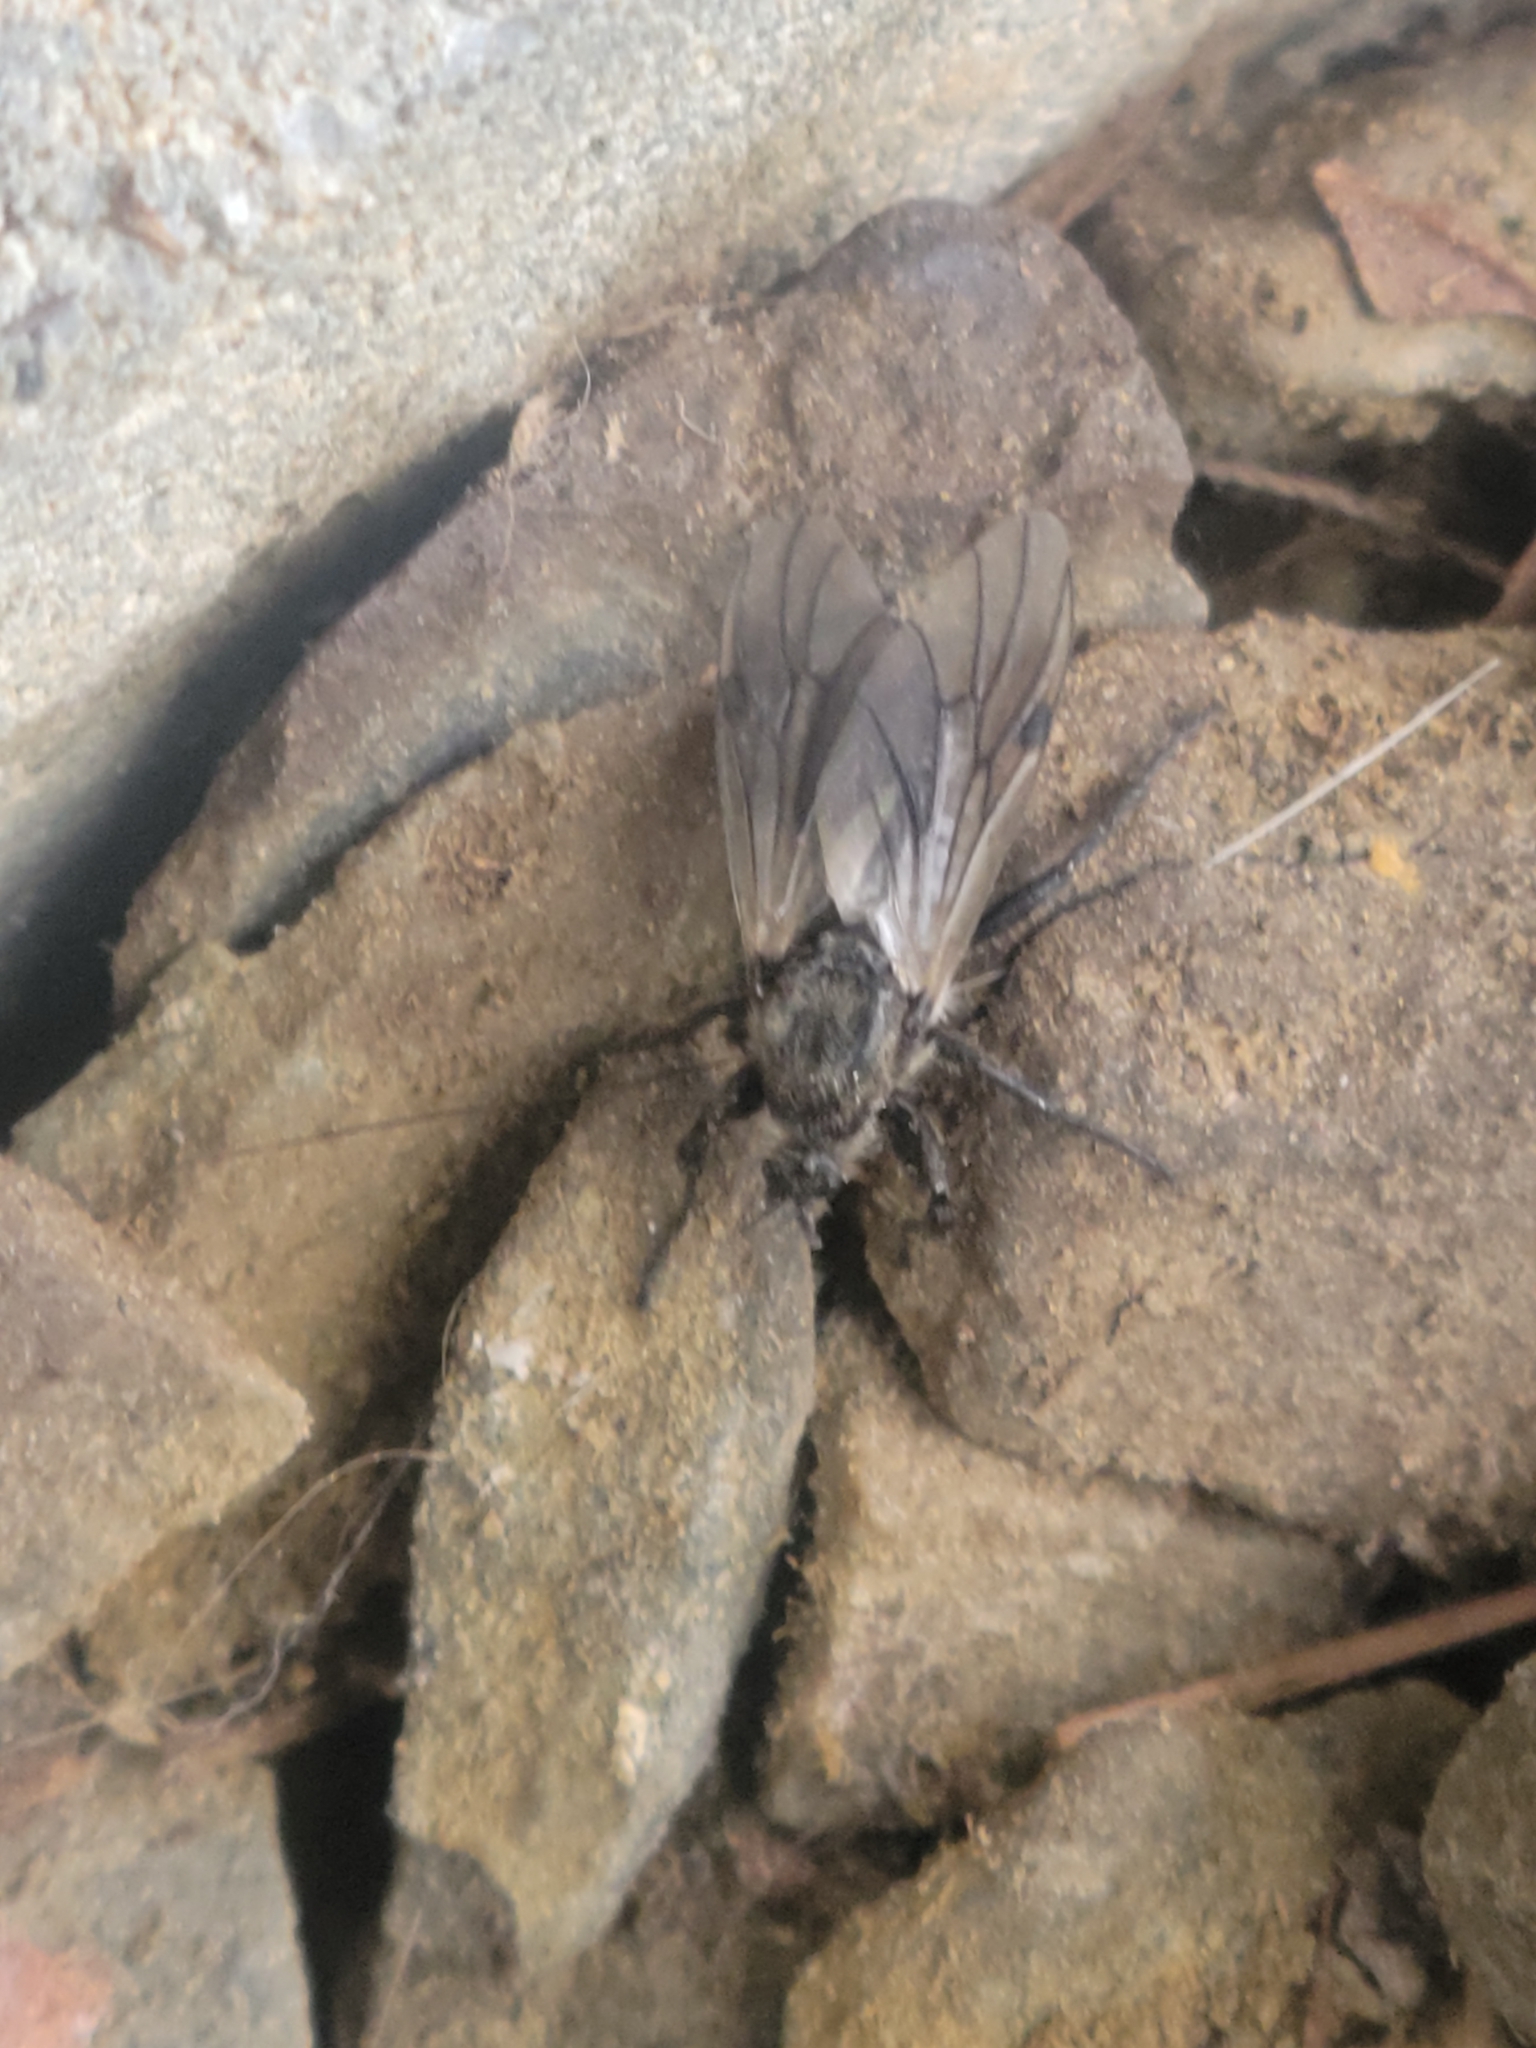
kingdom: Animalia
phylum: Arthropoda
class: Insecta
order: Diptera
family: Bibionidae
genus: Bibio
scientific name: Bibio albipennis
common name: White-winged march fly
